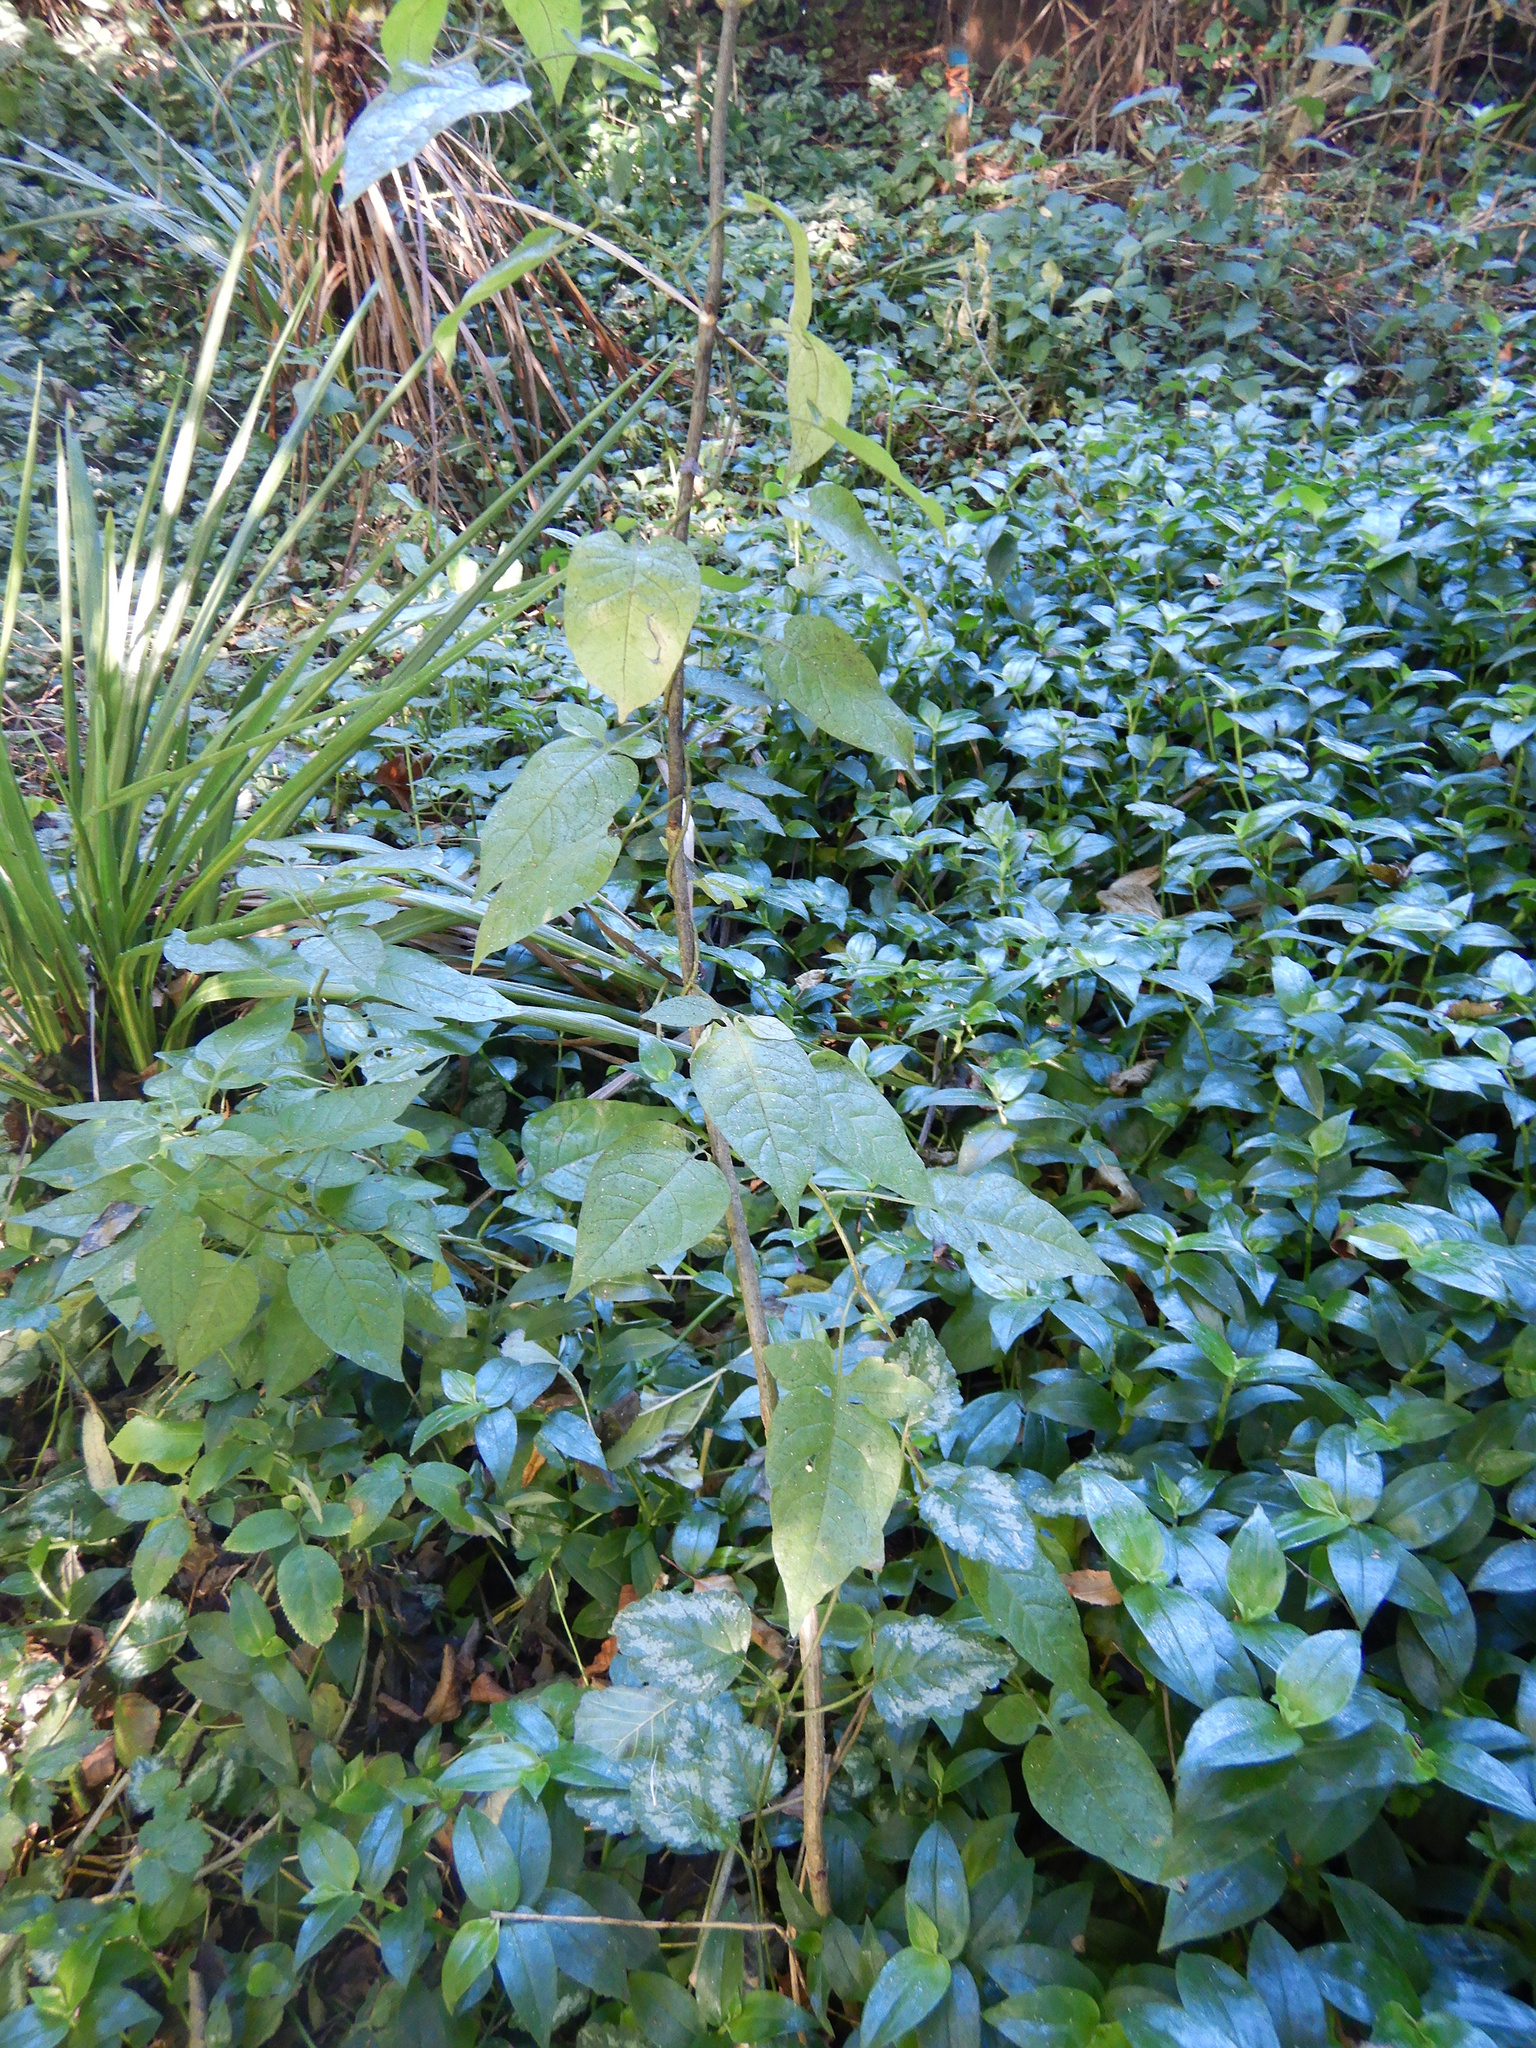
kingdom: Plantae
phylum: Tracheophyta
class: Magnoliopsida
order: Solanales
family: Solanaceae
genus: Solanum
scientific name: Solanum dulcamara
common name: Climbing nightshade
